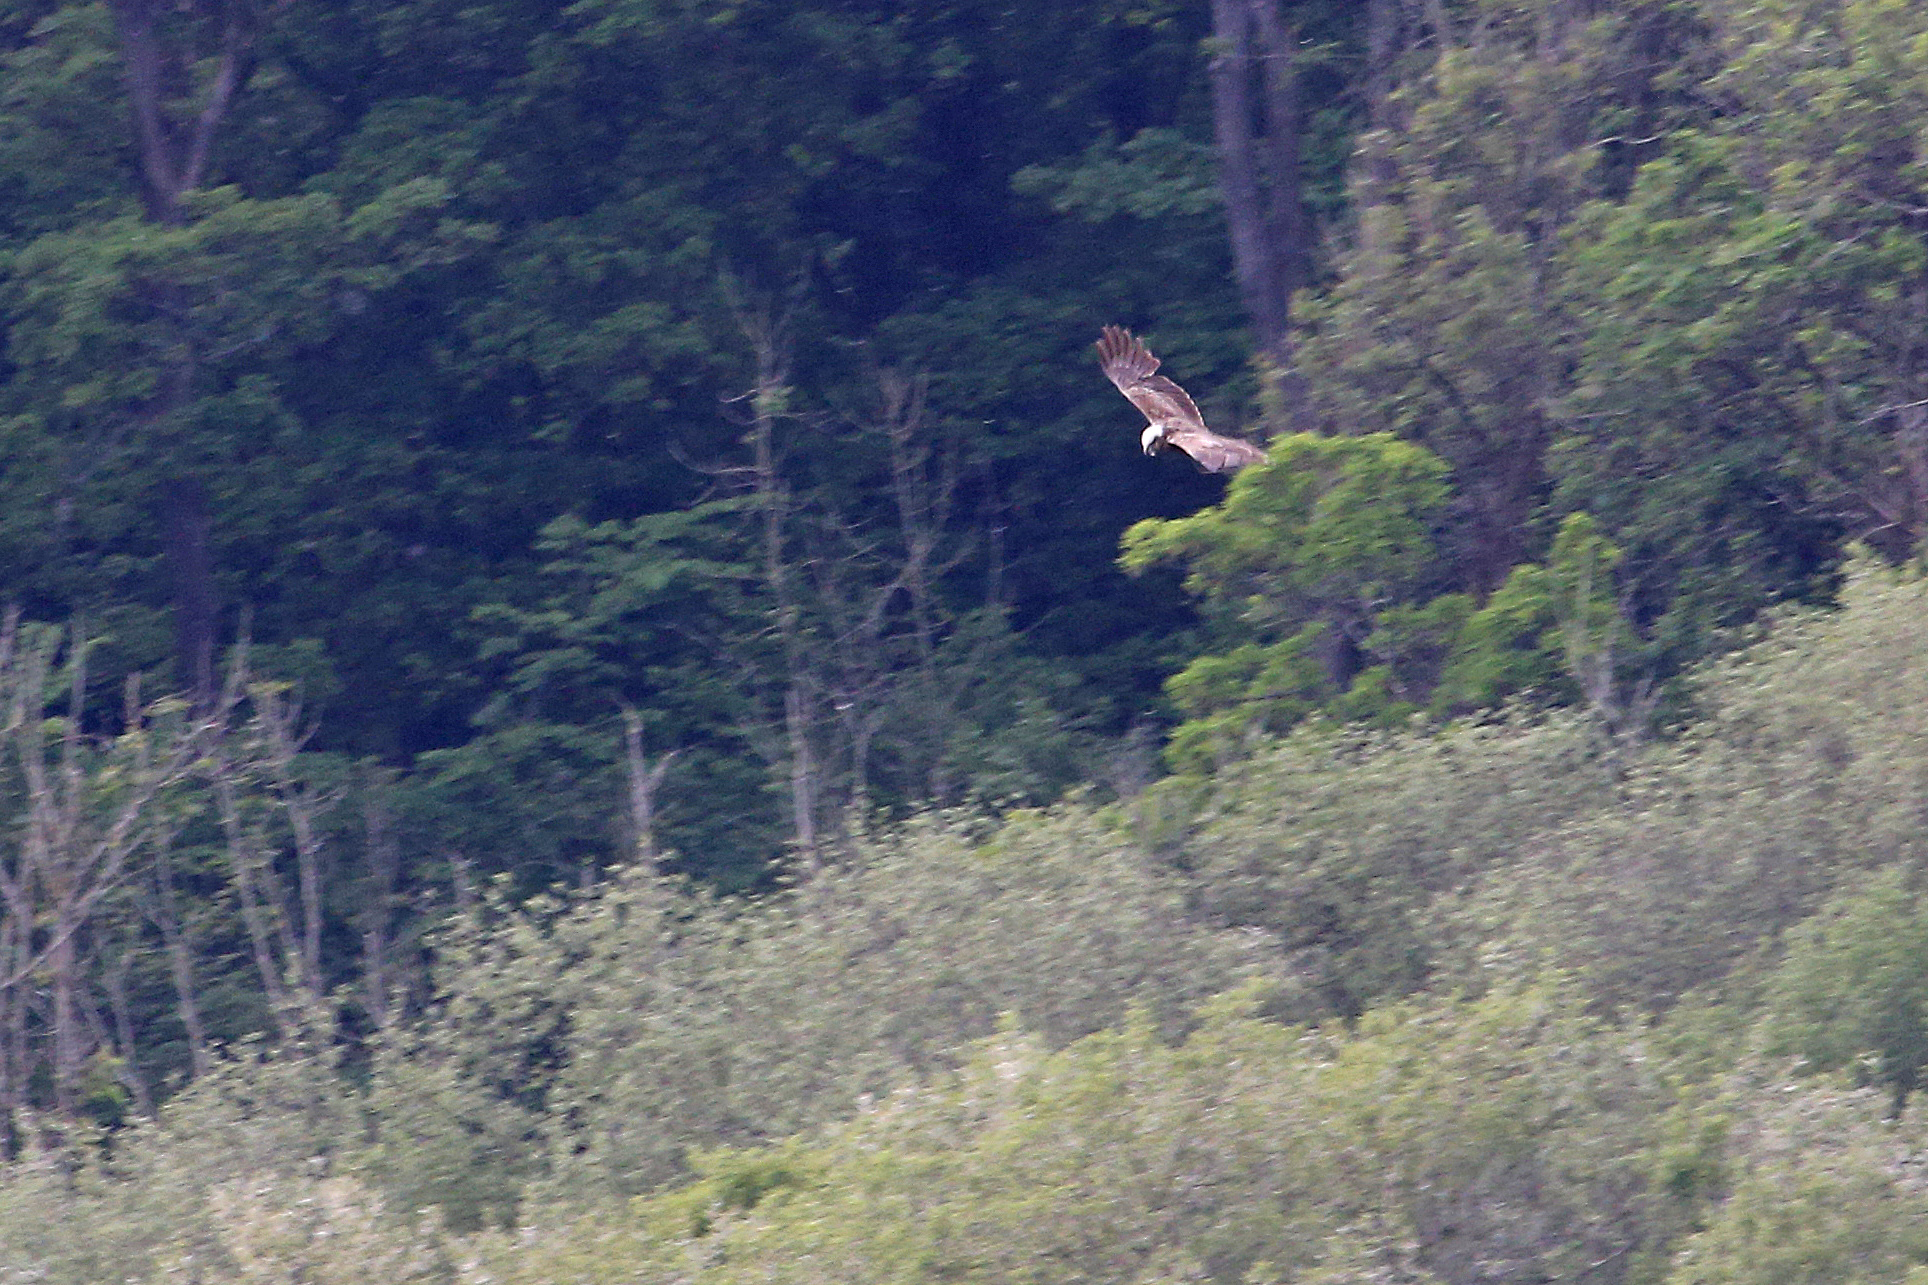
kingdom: Animalia
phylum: Chordata
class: Aves
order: Accipitriformes
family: Accipitridae
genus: Circus
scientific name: Circus aeruginosus
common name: Western marsh harrier
